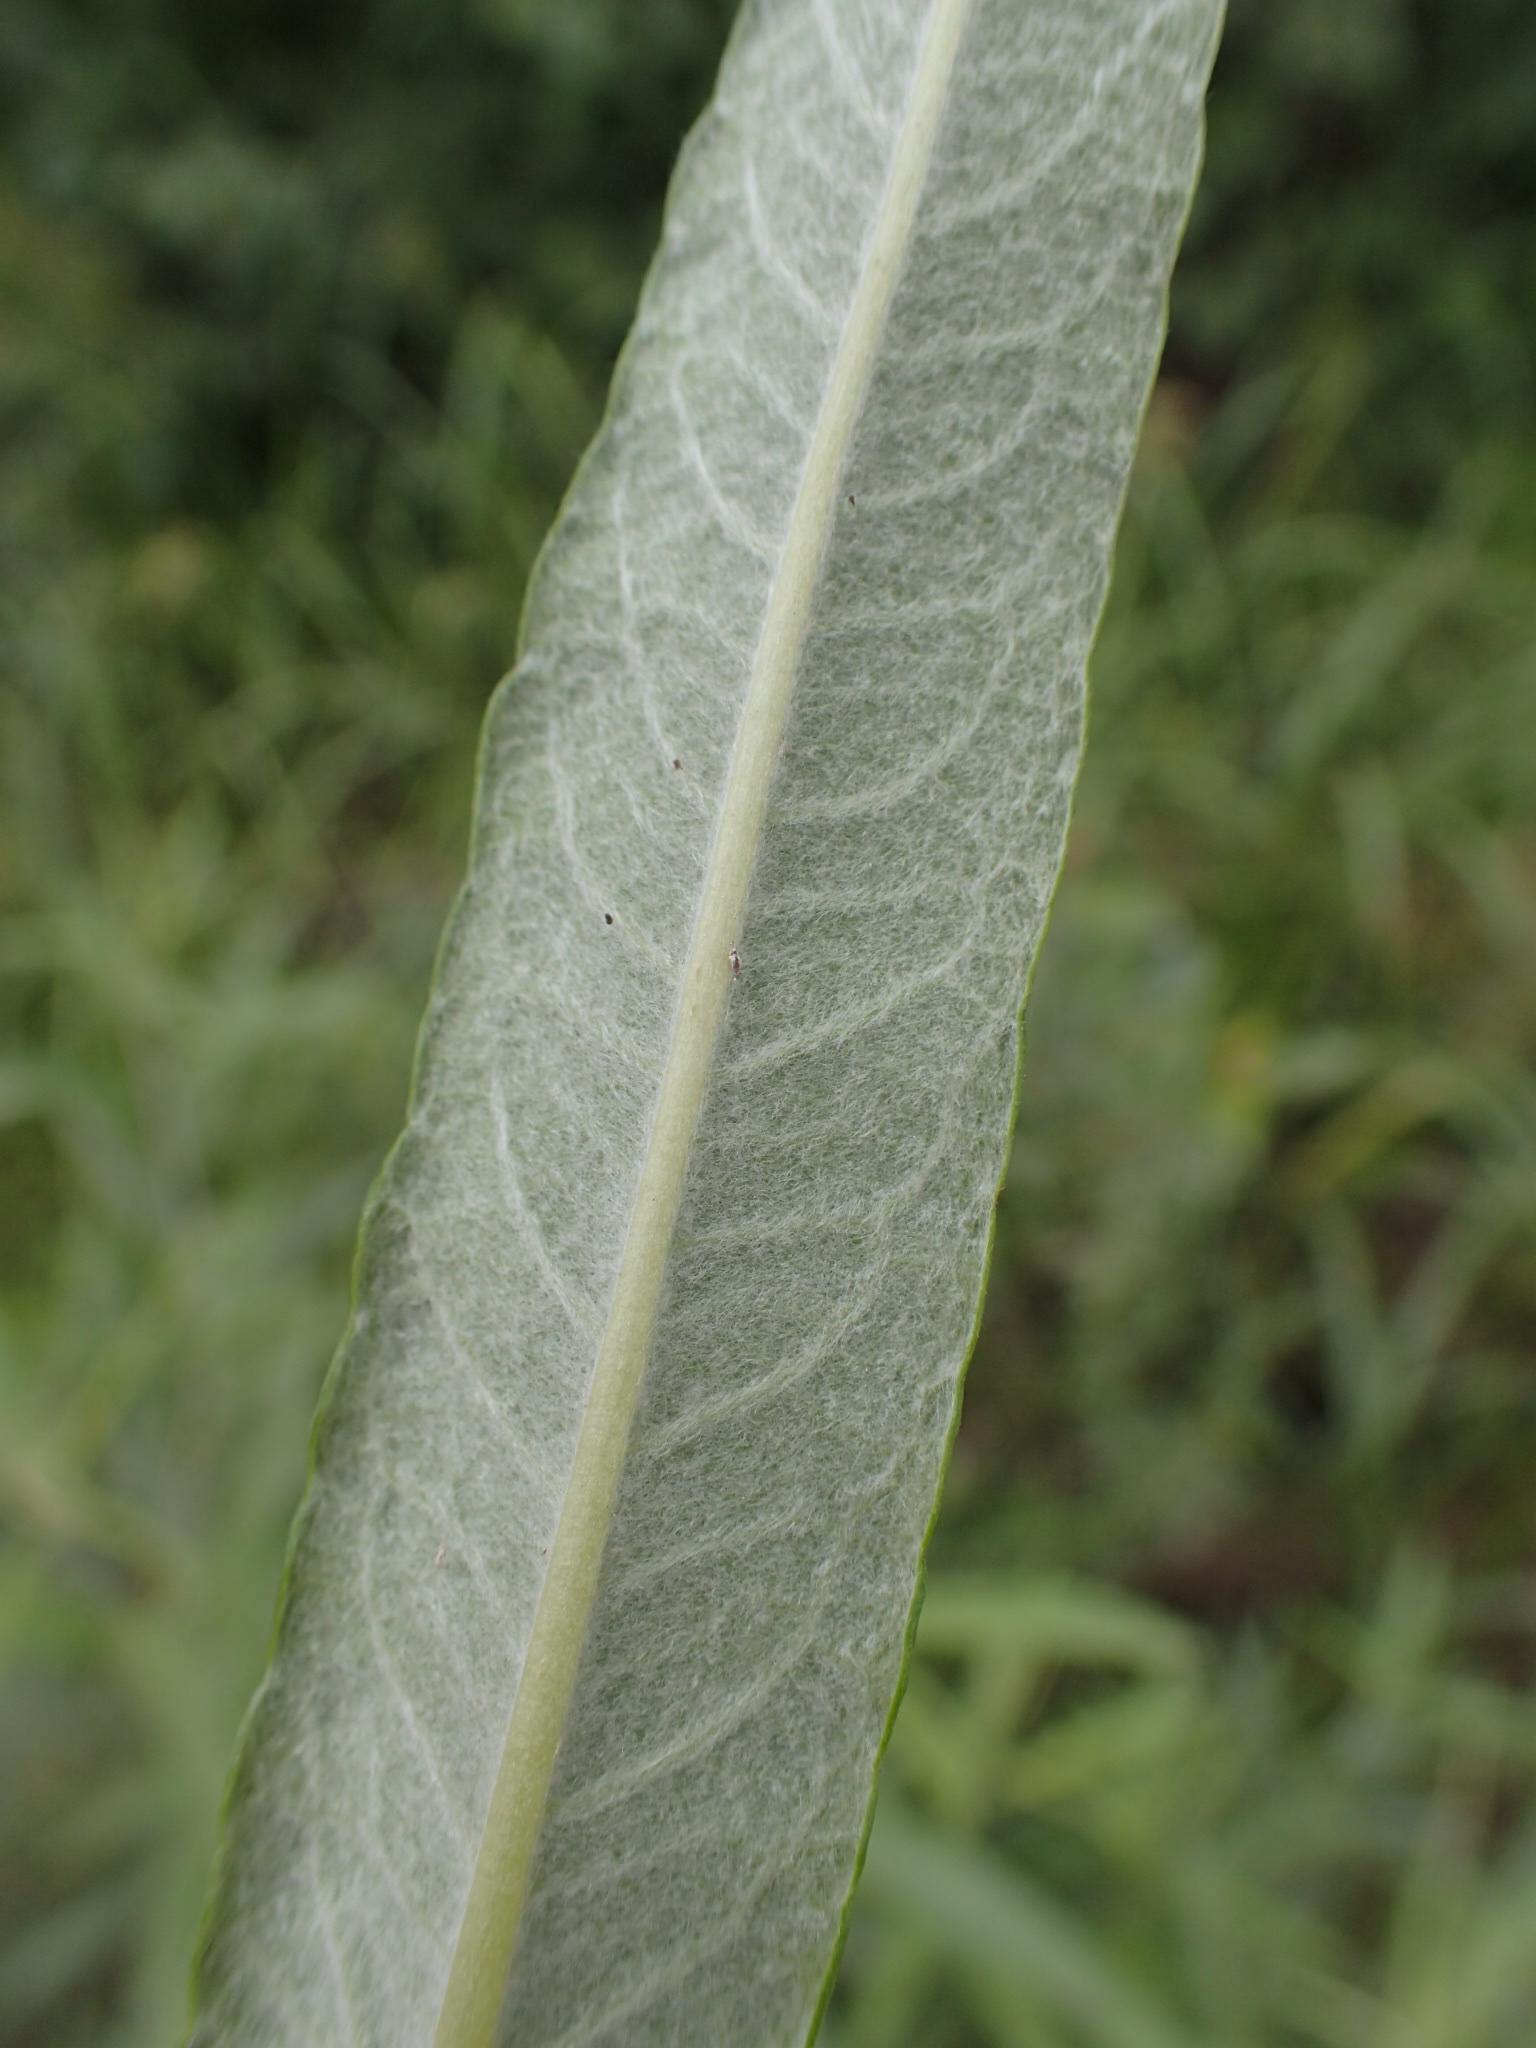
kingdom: Plantae
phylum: Tracheophyta
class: Magnoliopsida
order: Malpighiales
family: Salicaceae
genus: Salix
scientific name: Salix candida
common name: Hoary willow
